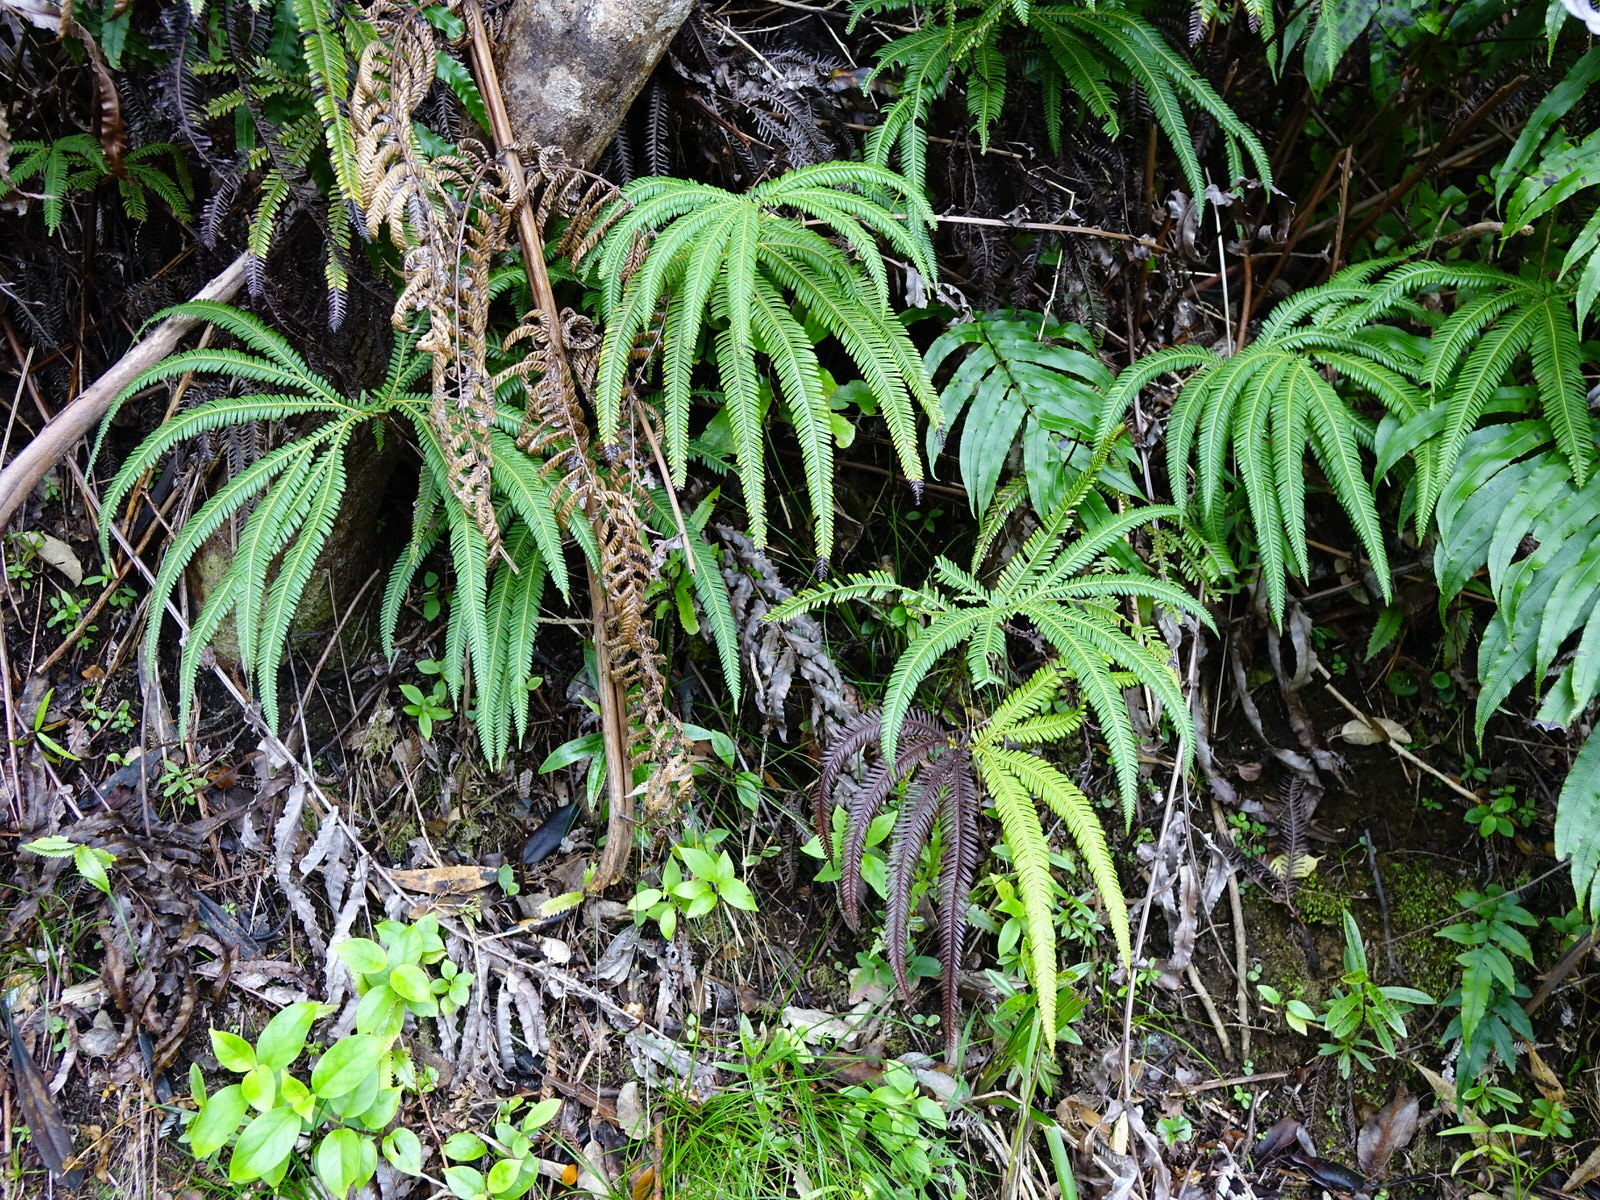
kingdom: Plantae
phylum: Tracheophyta
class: Polypodiopsida
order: Gleicheniales
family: Gleicheniaceae
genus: Sticherus
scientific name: Sticherus cunninghamii
